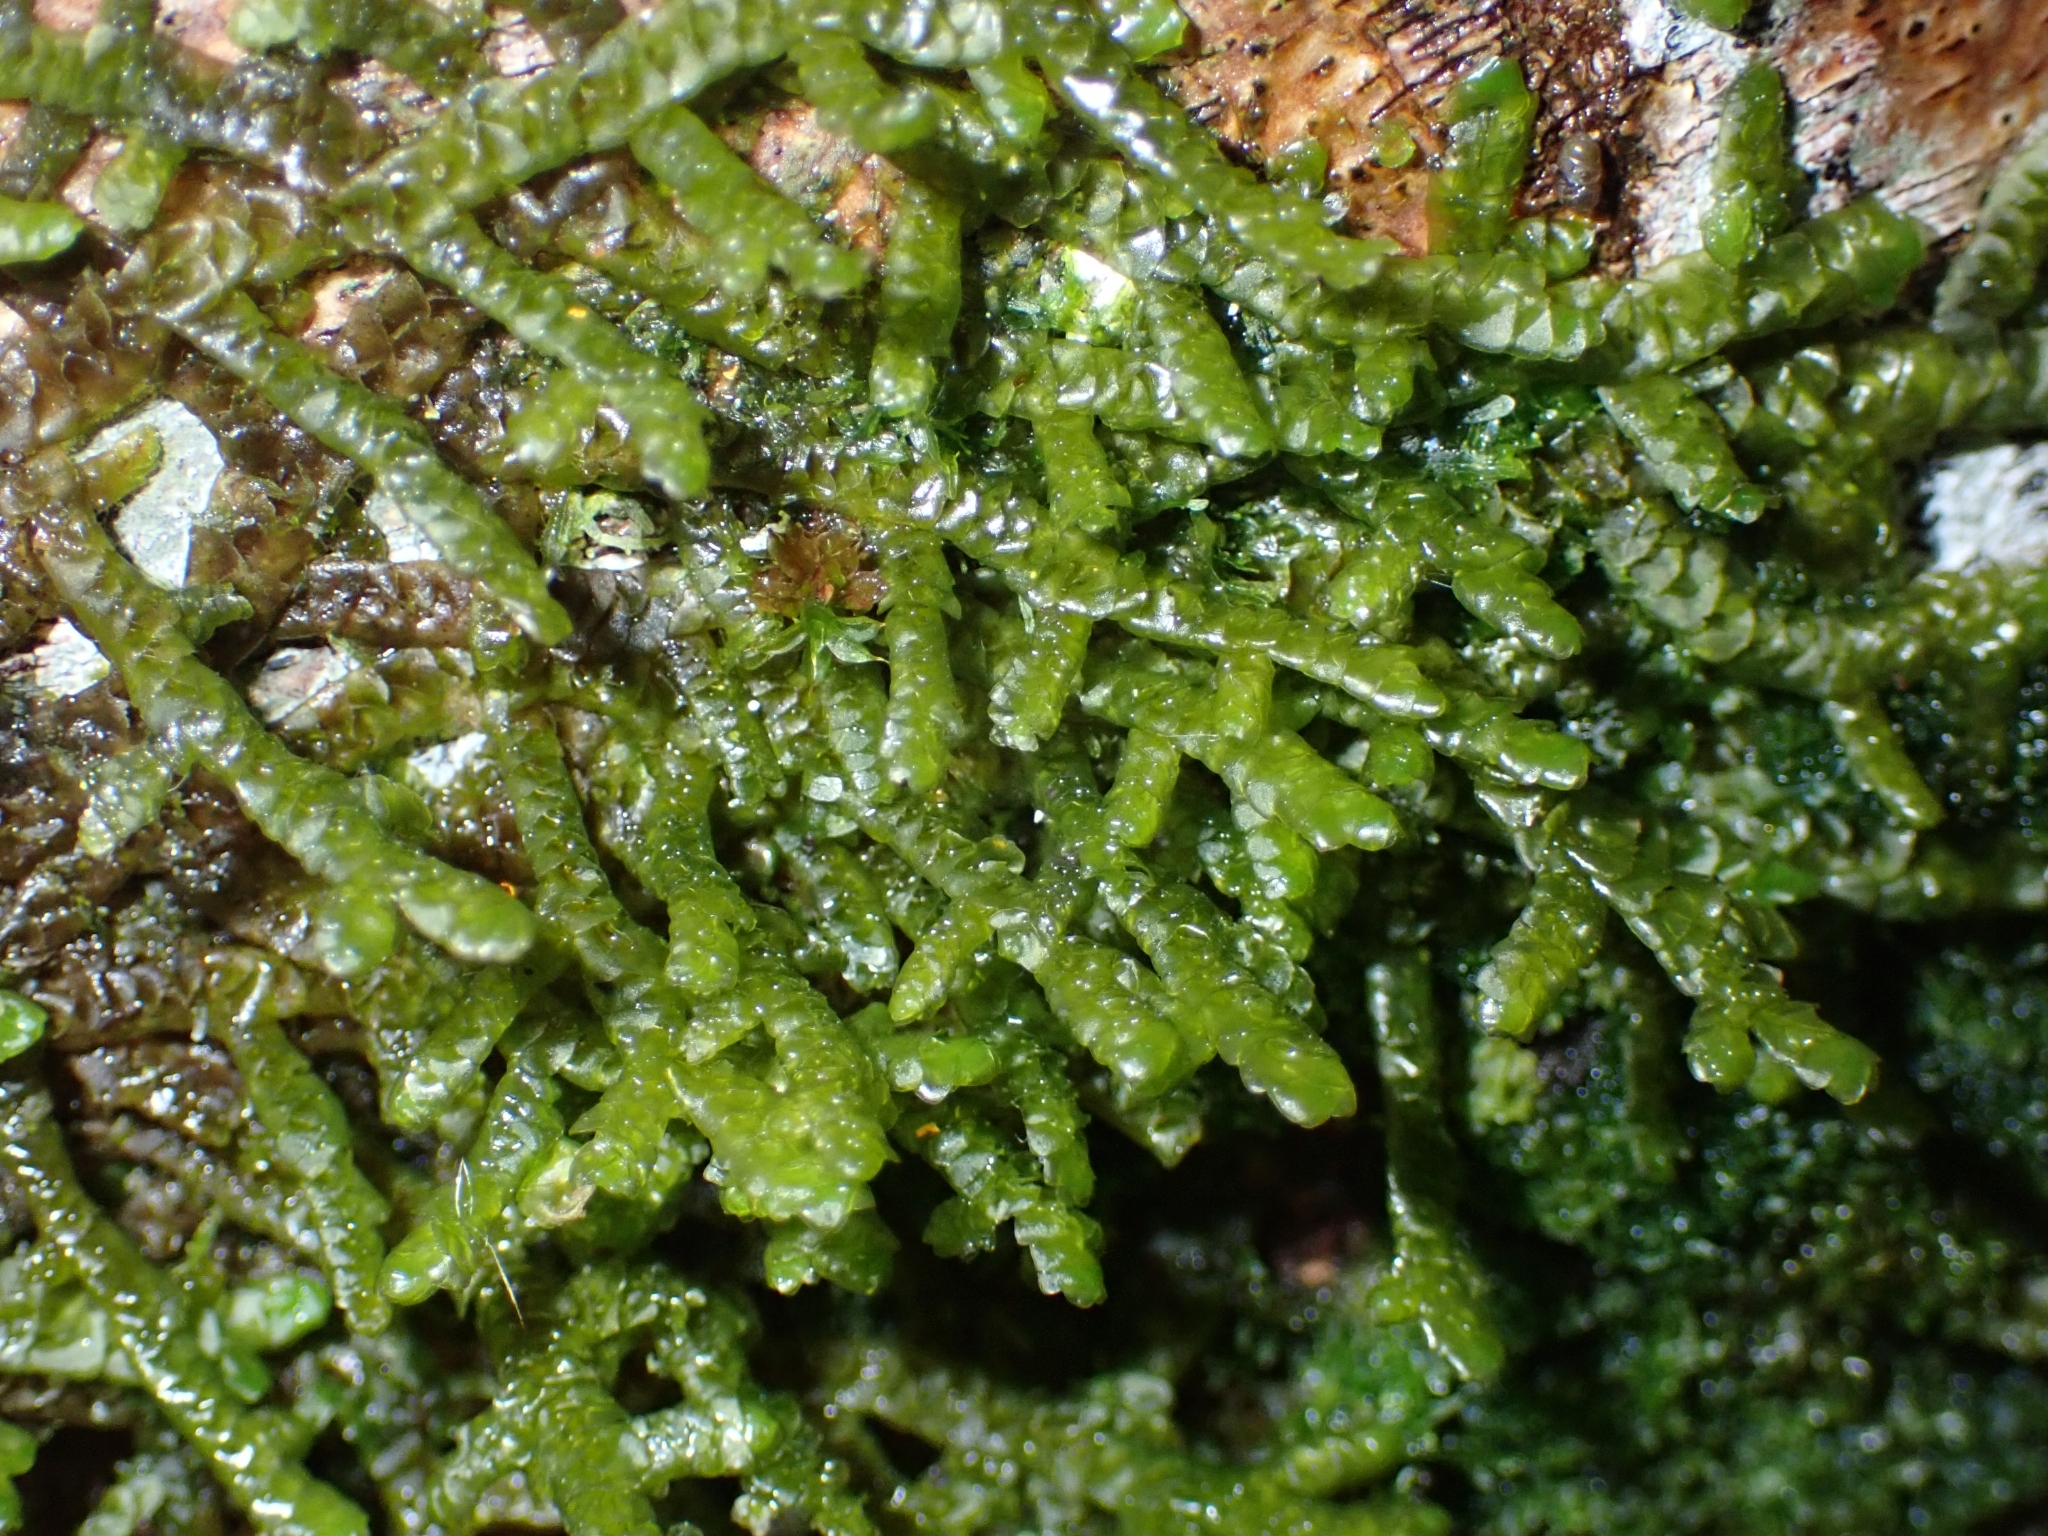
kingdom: Plantae
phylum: Marchantiophyta
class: Jungermanniopsida
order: Porellales
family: Porellaceae
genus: Porella
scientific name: Porella platyphylla
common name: Wall scalewort
